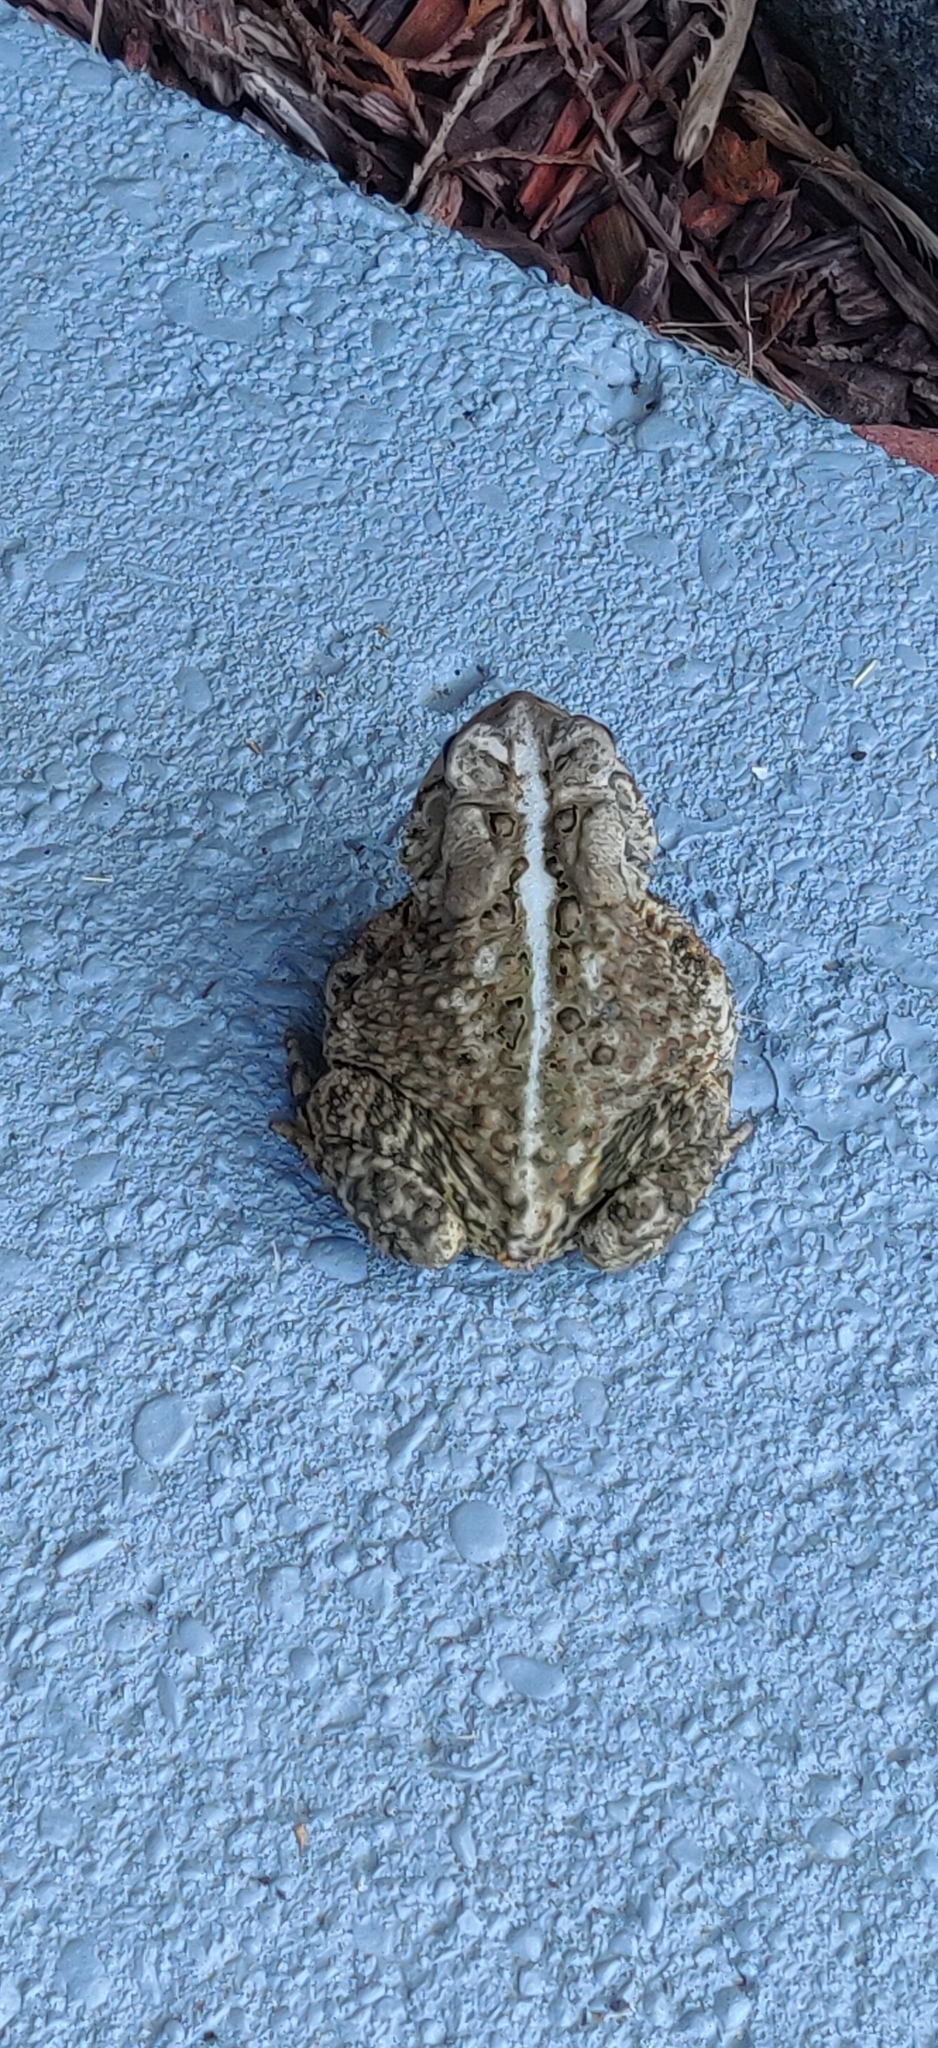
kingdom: Animalia
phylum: Chordata
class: Amphibia
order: Anura
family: Bufonidae
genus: Anaxyrus
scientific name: Anaxyrus americanus
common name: American toad
